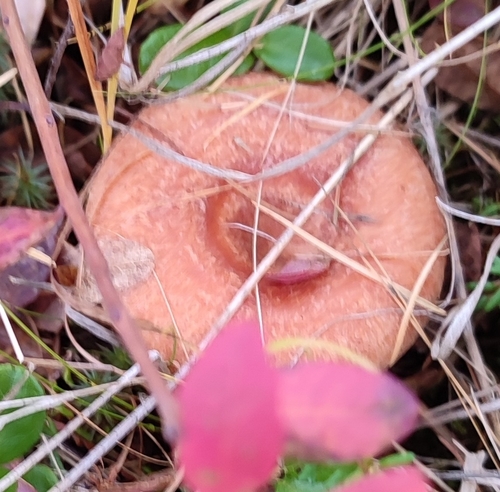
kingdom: Fungi
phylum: Basidiomycota
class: Agaricomycetes
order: Russulales
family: Russulaceae
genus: Lactarius
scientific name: Lactarius torminosus
